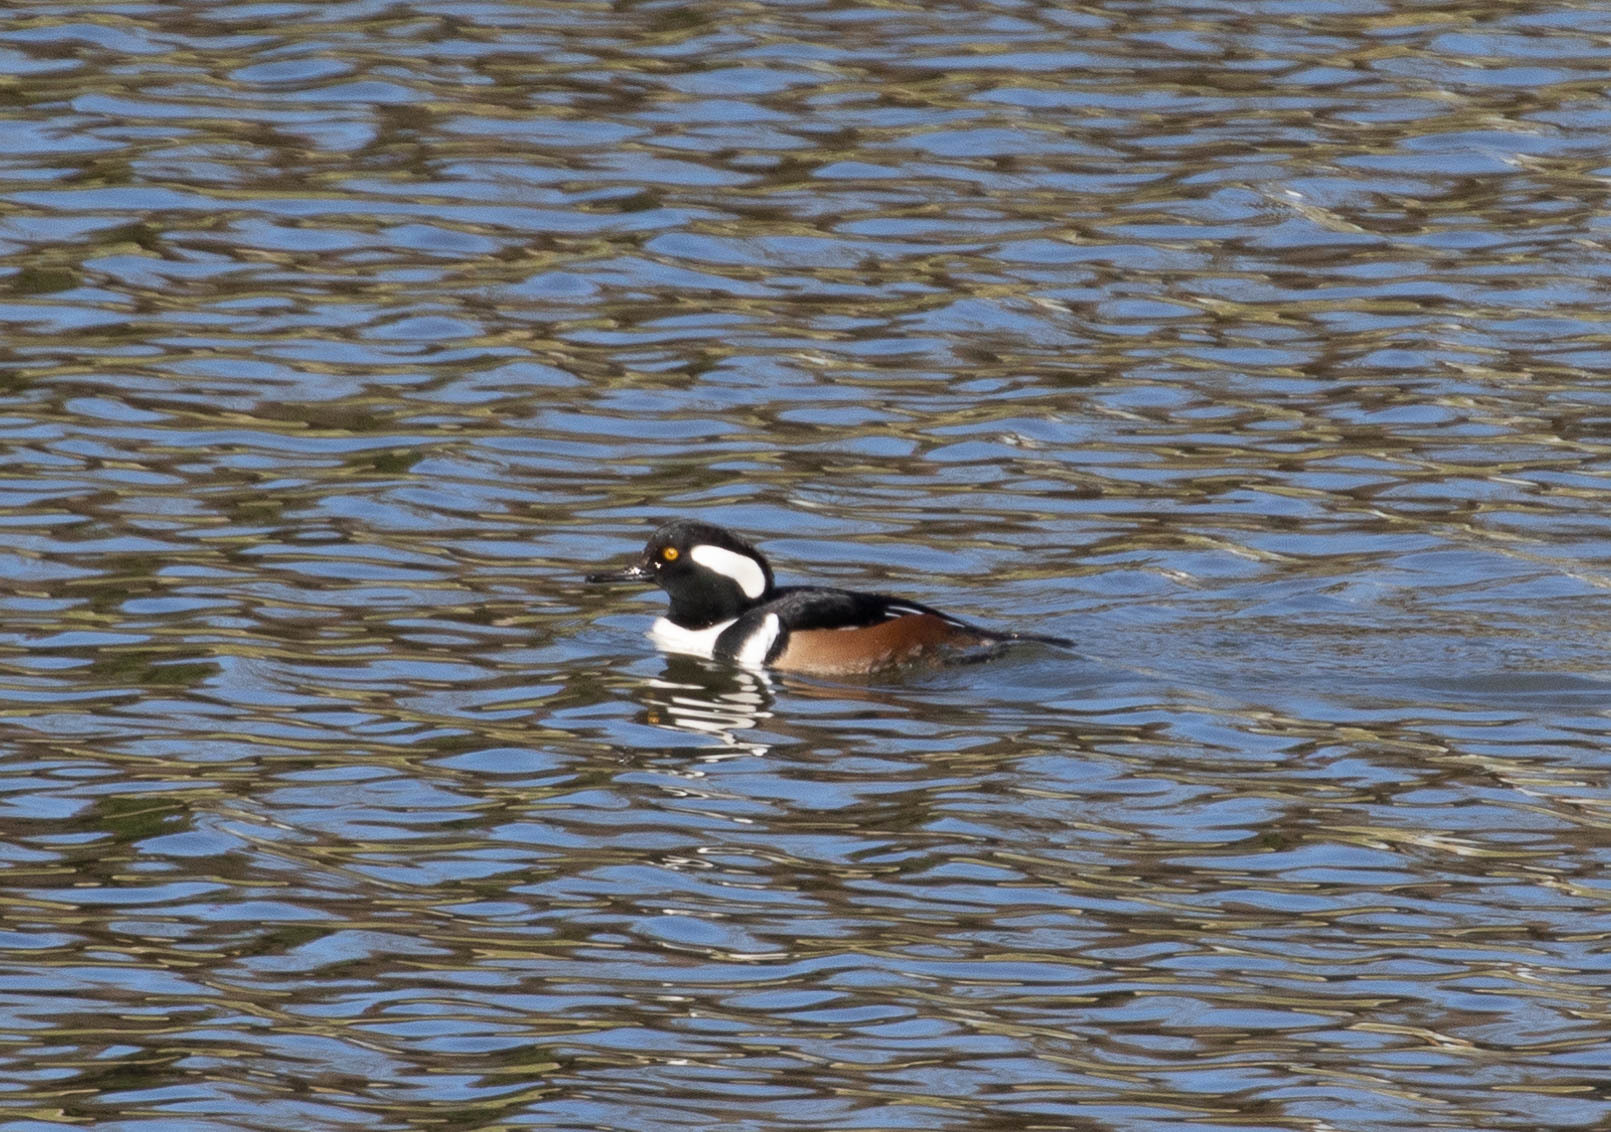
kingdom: Animalia
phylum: Chordata
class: Aves
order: Anseriformes
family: Anatidae
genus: Lophodytes
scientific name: Lophodytes cucullatus
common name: Hooded merganser
